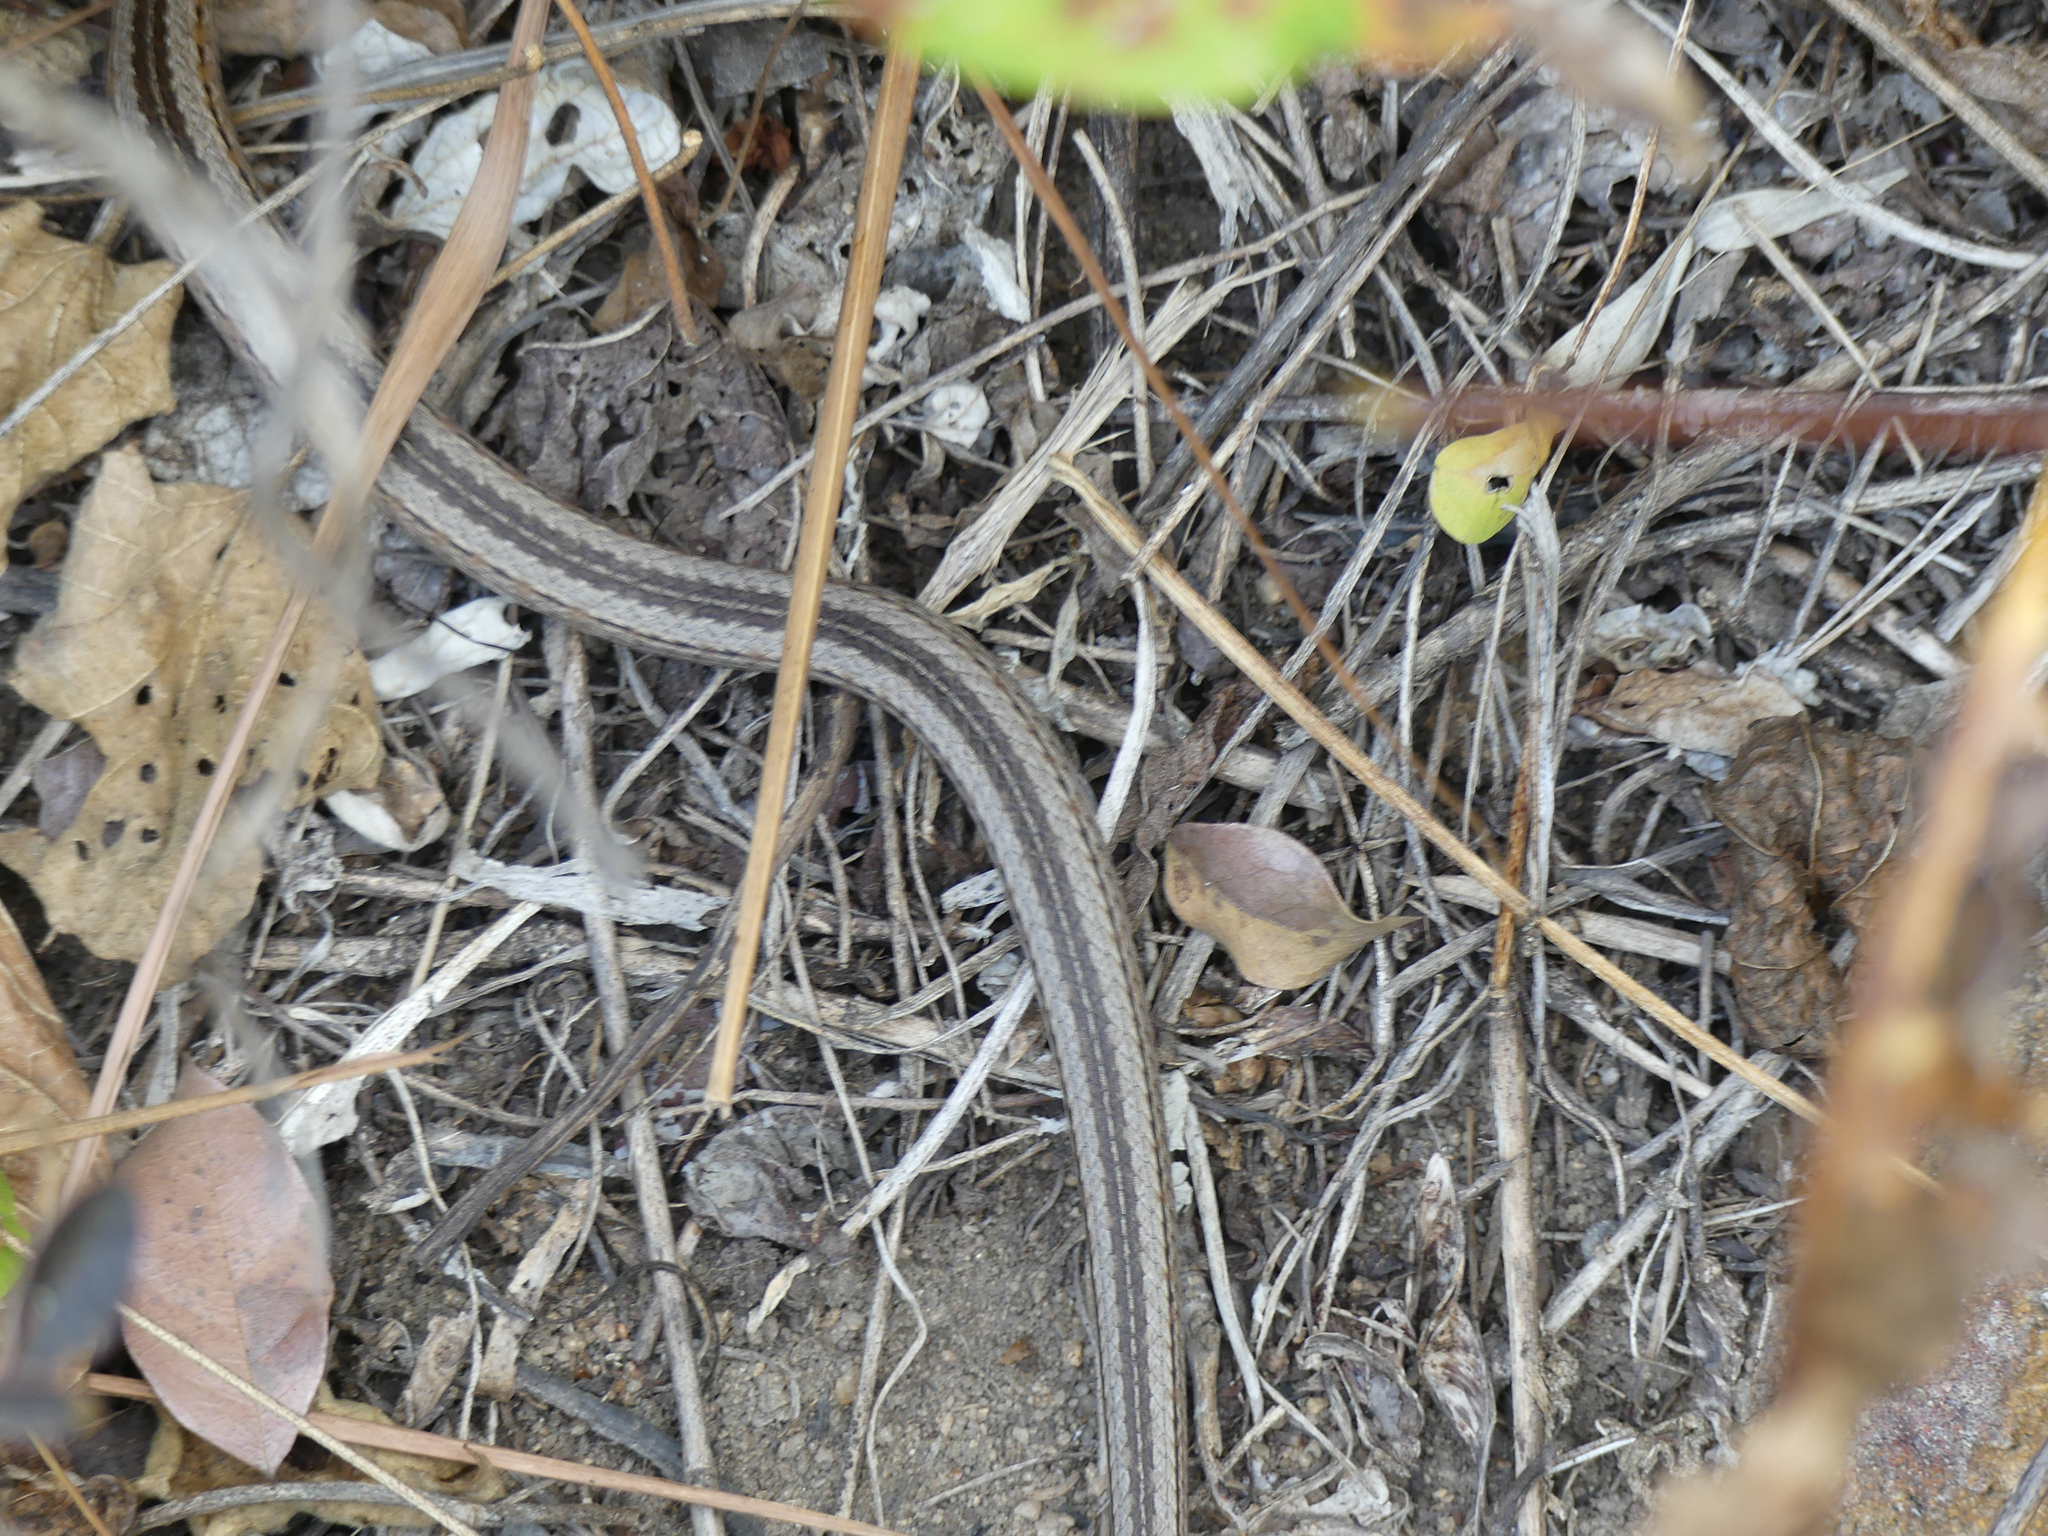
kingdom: Animalia
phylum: Chordata
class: Squamata
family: Psammophiidae
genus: Mimophis
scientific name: Mimophis mahfalensis
